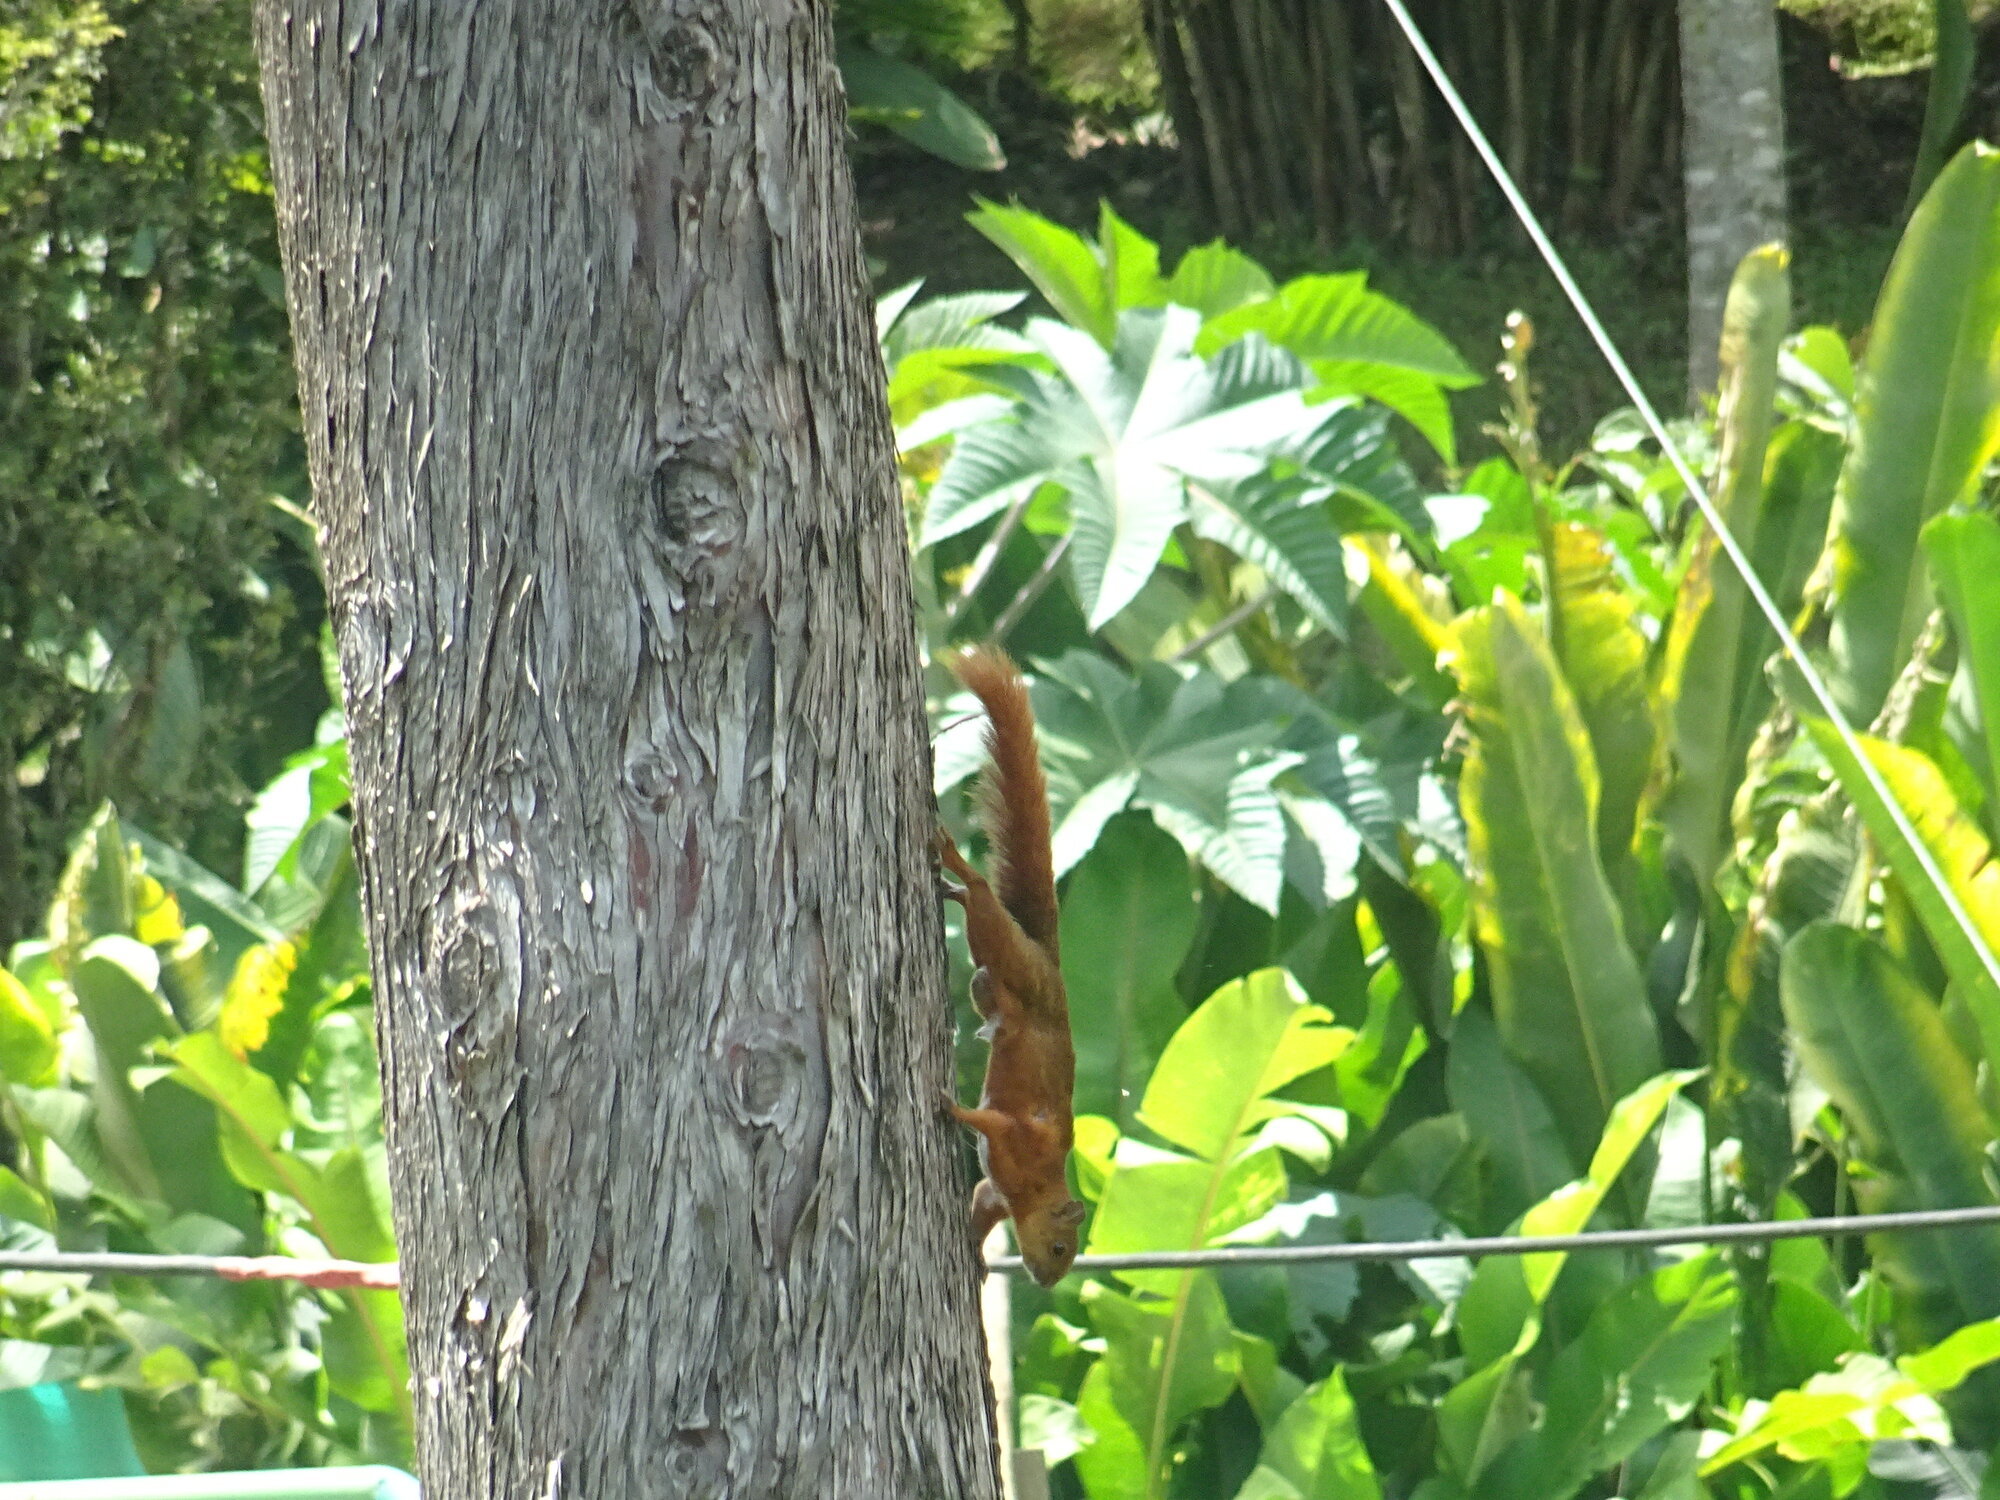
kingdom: Animalia
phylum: Chordata
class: Mammalia
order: Rodentia
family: Sciuridae
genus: Sciurus
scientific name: Sciurus granatensis
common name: Red-tailed squirrel
